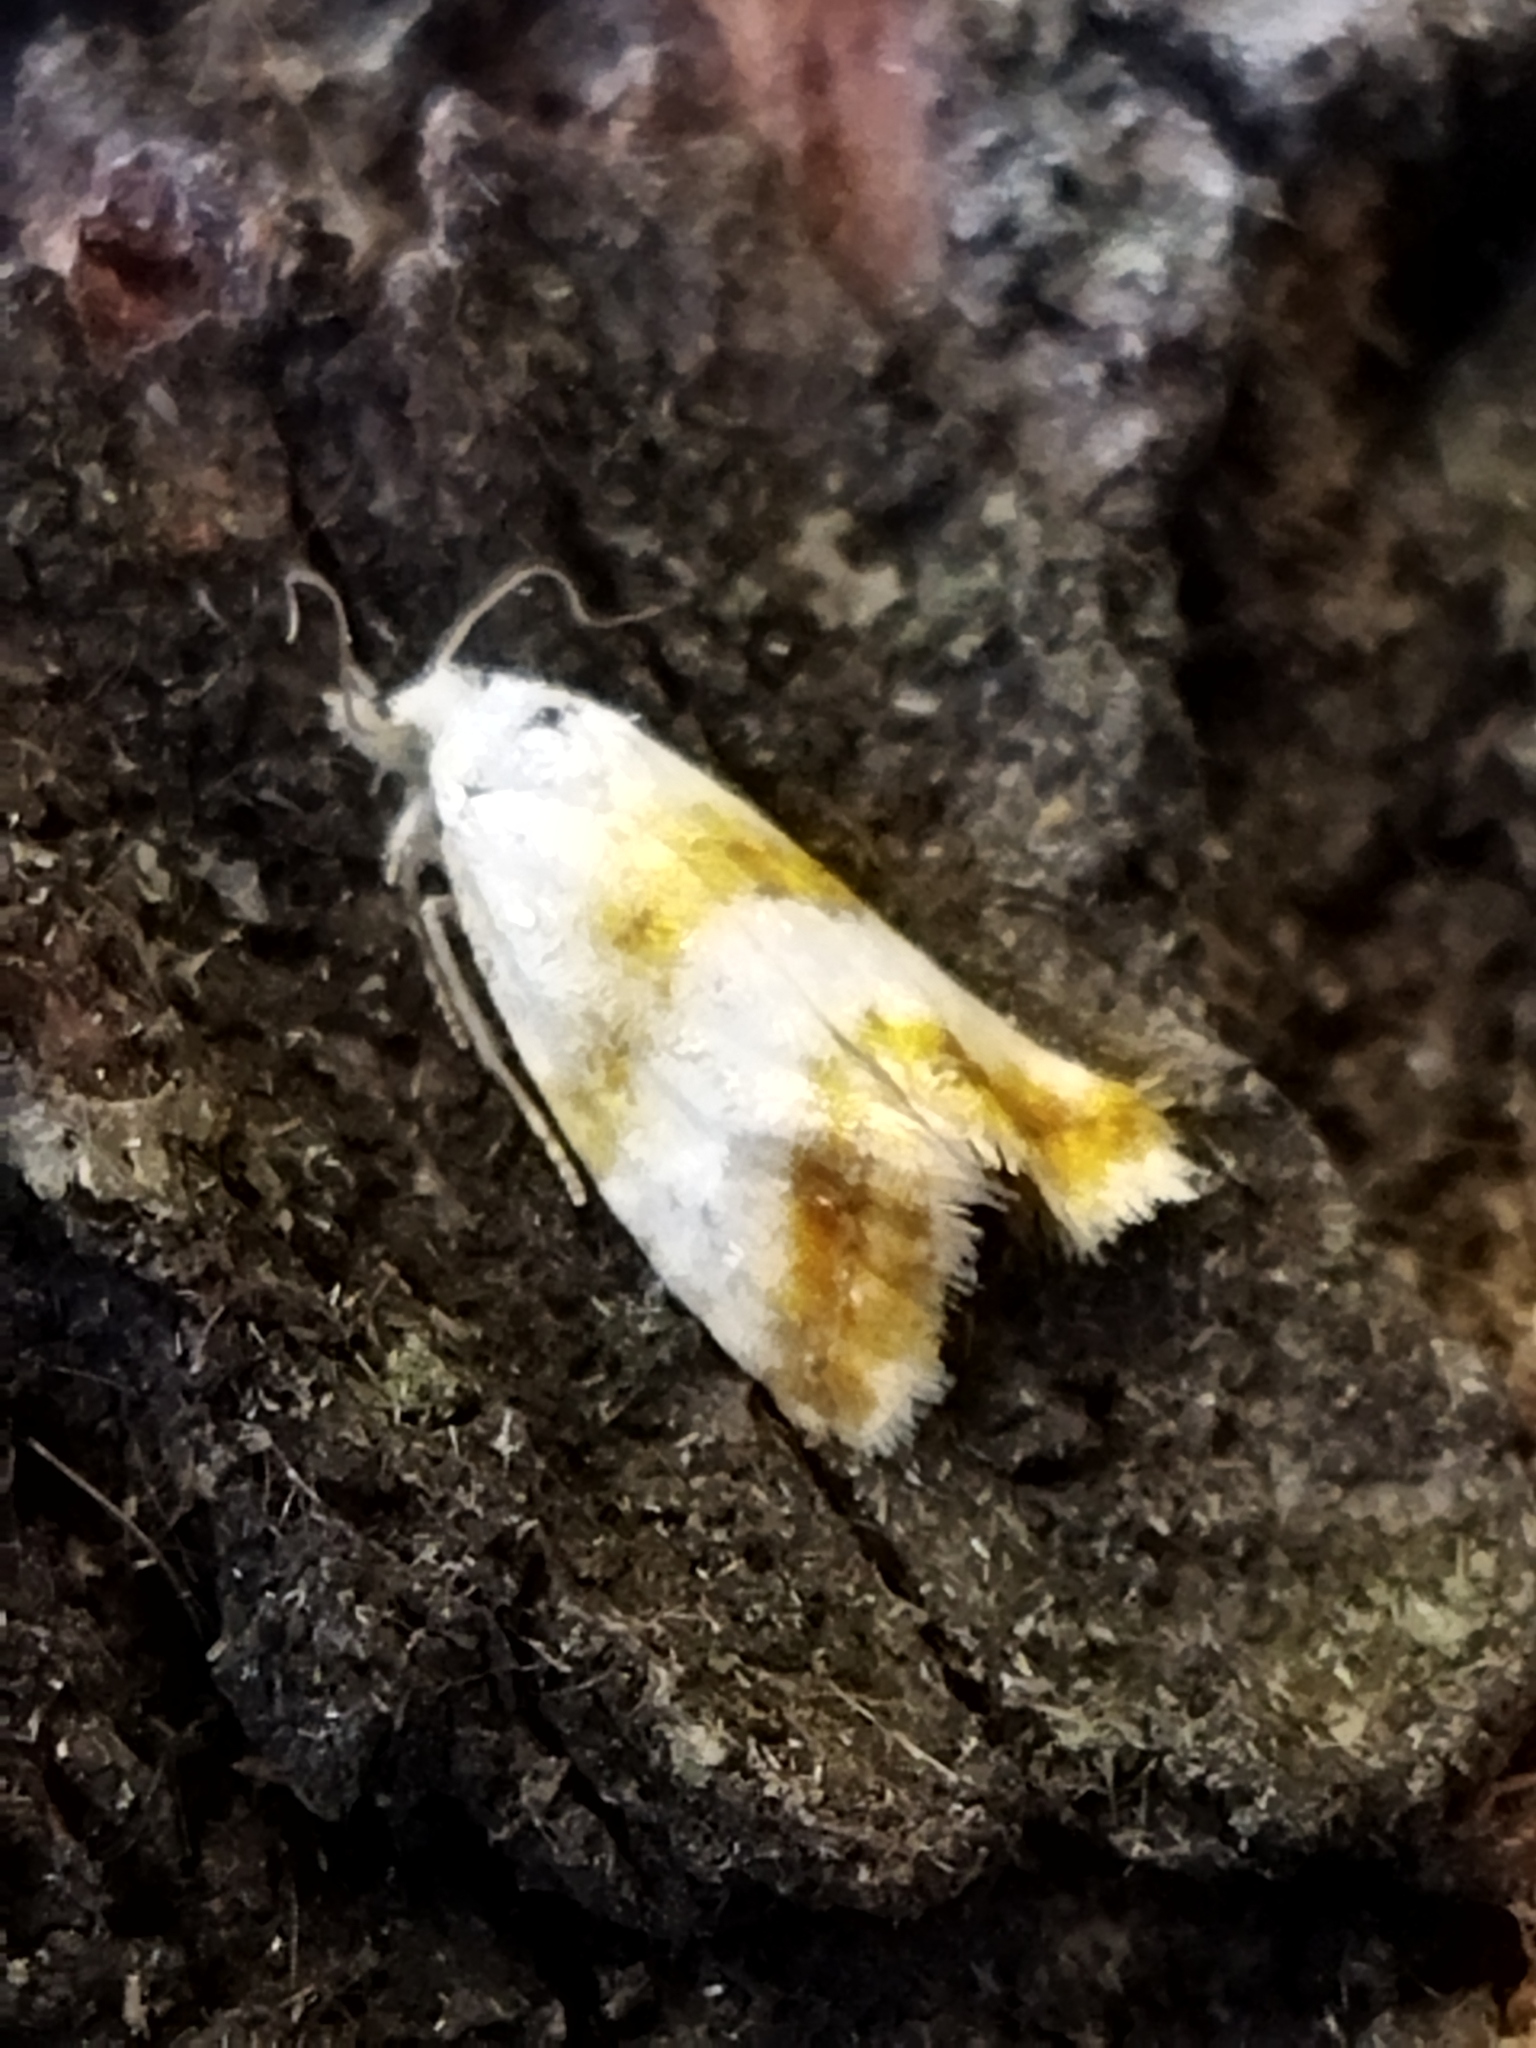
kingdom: Animalia
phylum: Arthropoda
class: Insecta
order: Lepidoptera
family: Tortricidae
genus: Phtheochroa
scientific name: Phtheochroa procerana
